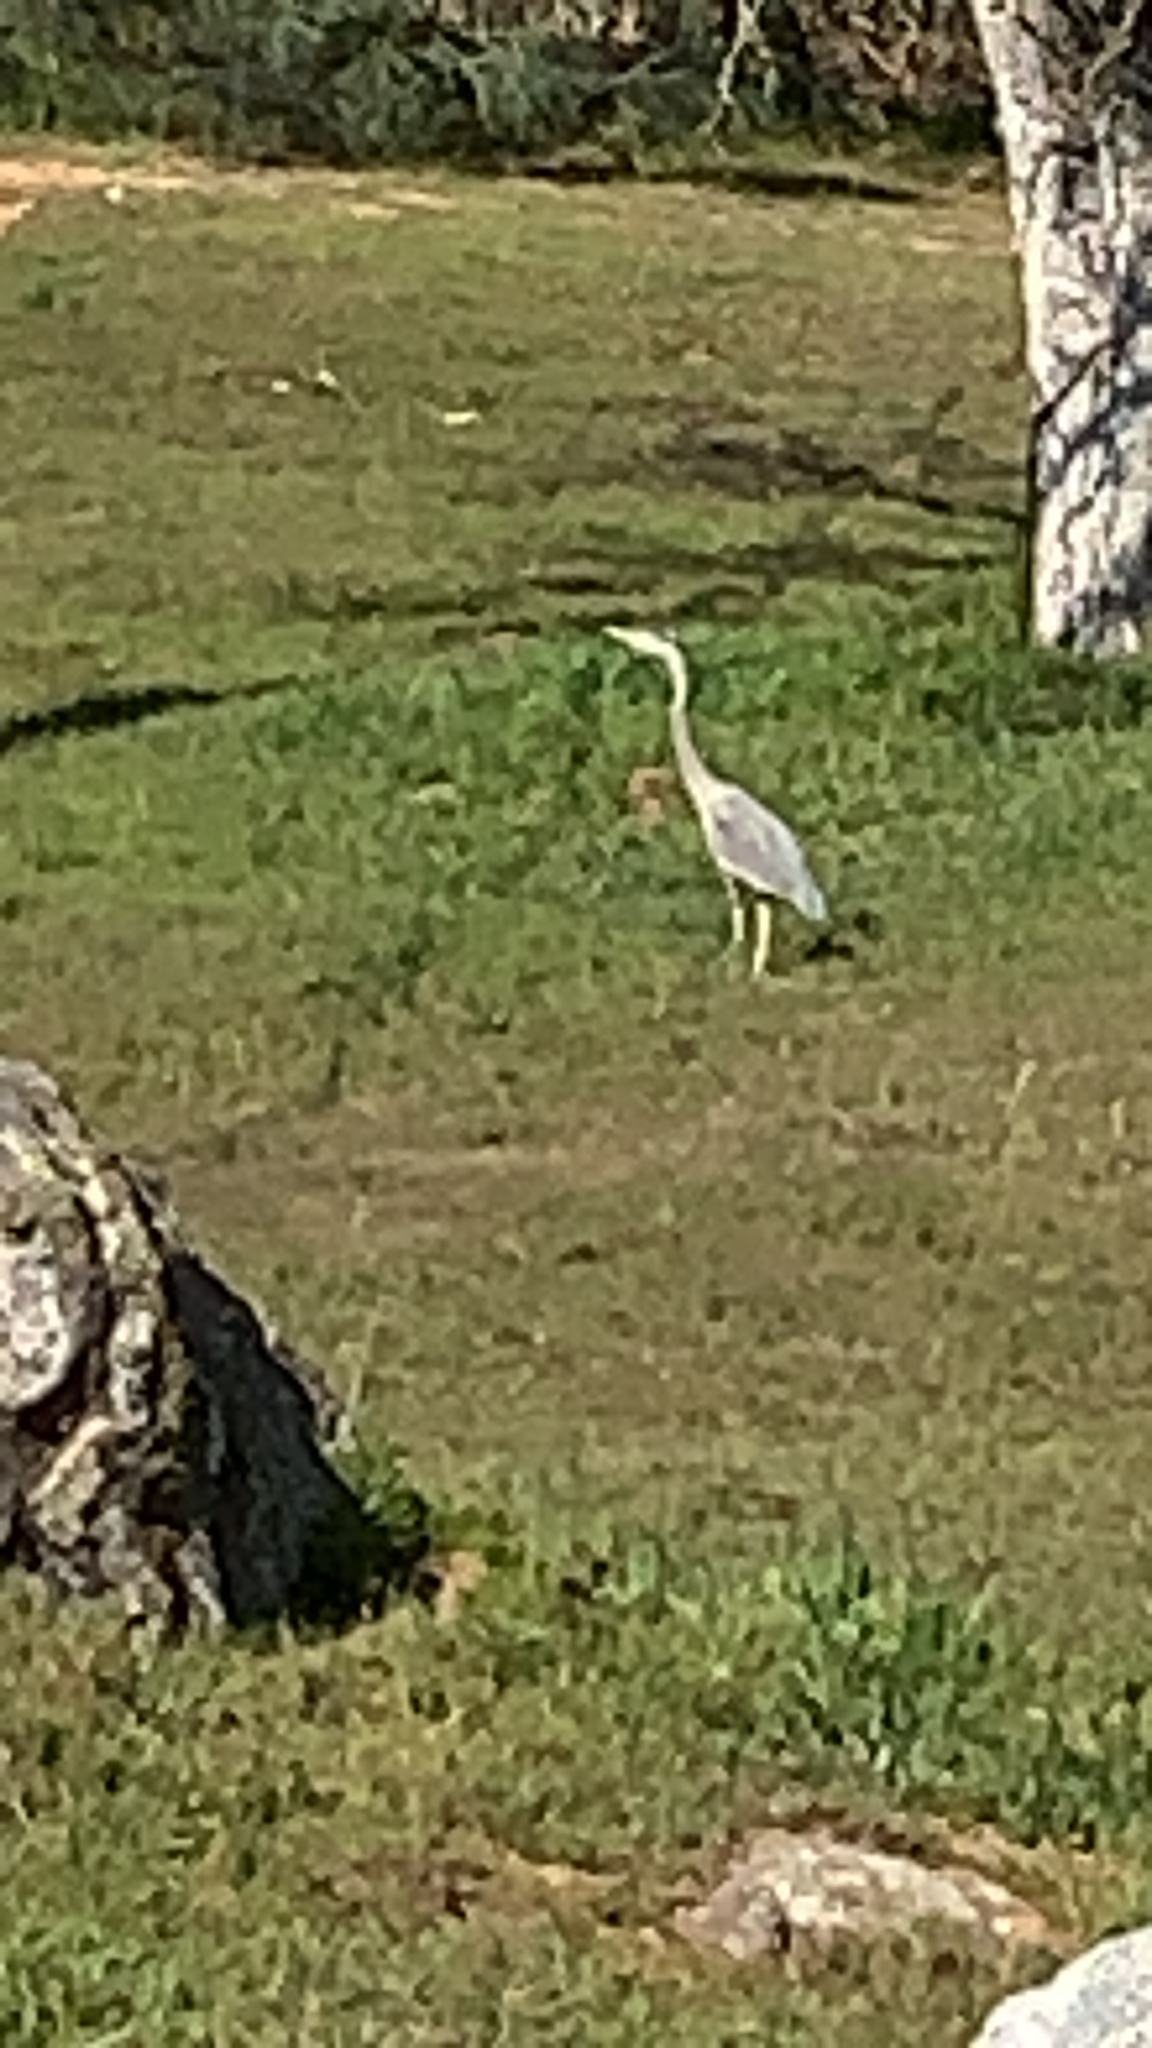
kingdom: Animalia
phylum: Chordata
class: Aves
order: Pelecaniformes
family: Ardeidae
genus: Ardea
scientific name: Ardea herodias
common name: Great blue heron
